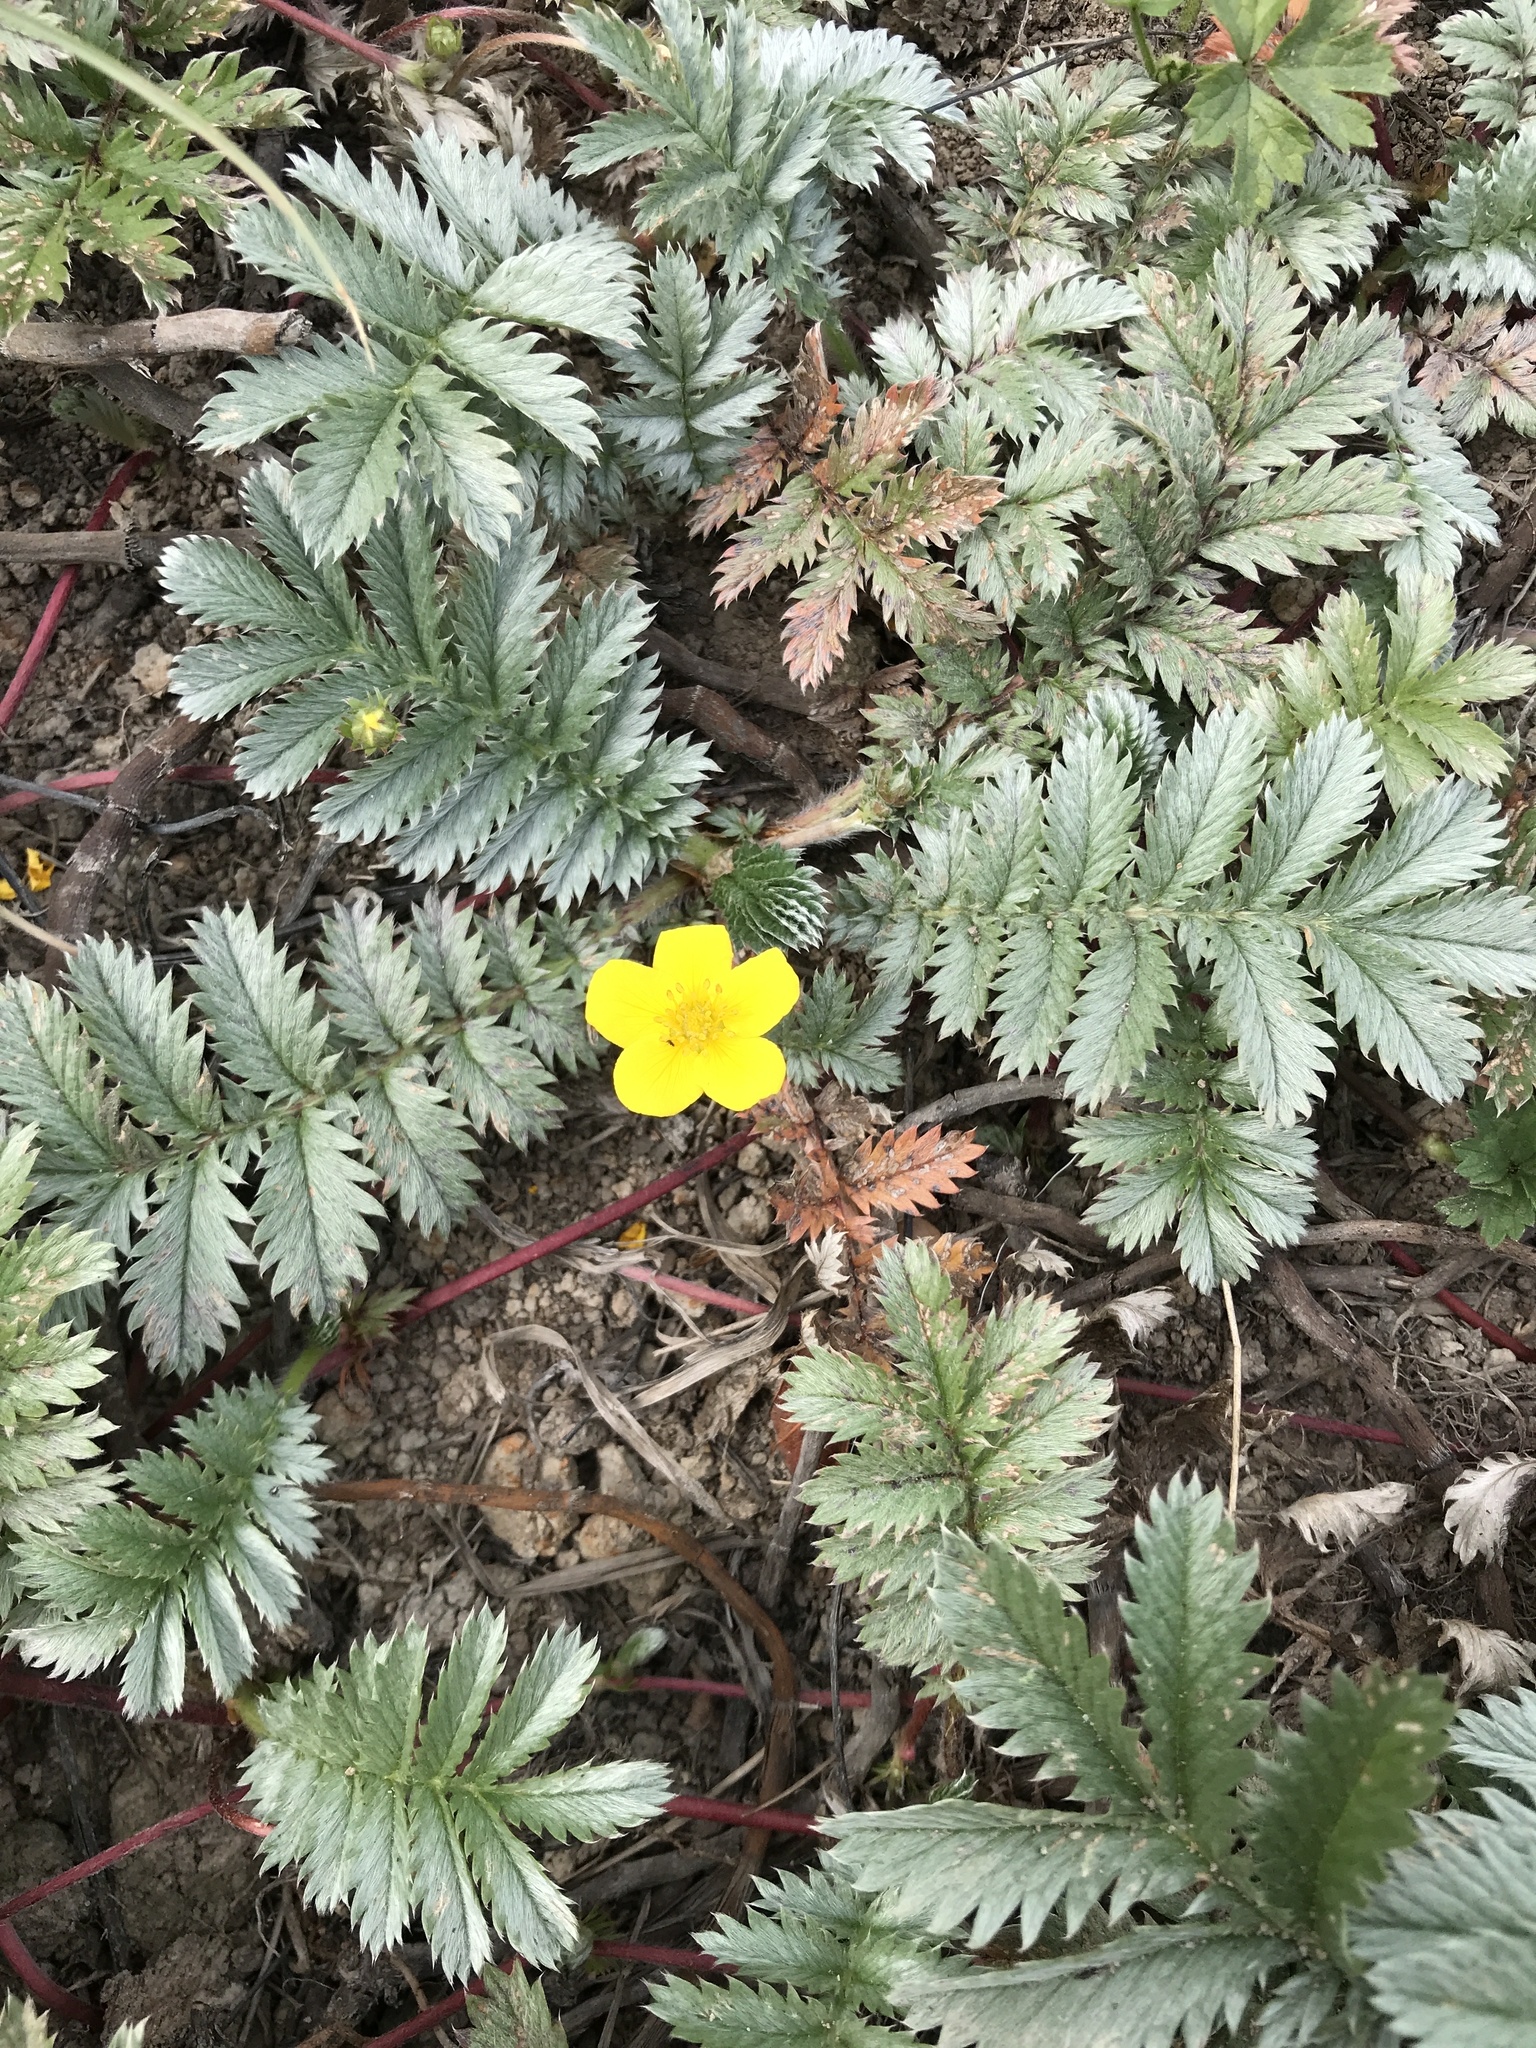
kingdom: Plantae
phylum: Tracheophyta
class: Magnoliopsida
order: Rosales
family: Rosaceae
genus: Argentina
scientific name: Argentina anserina
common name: Common silverweed
